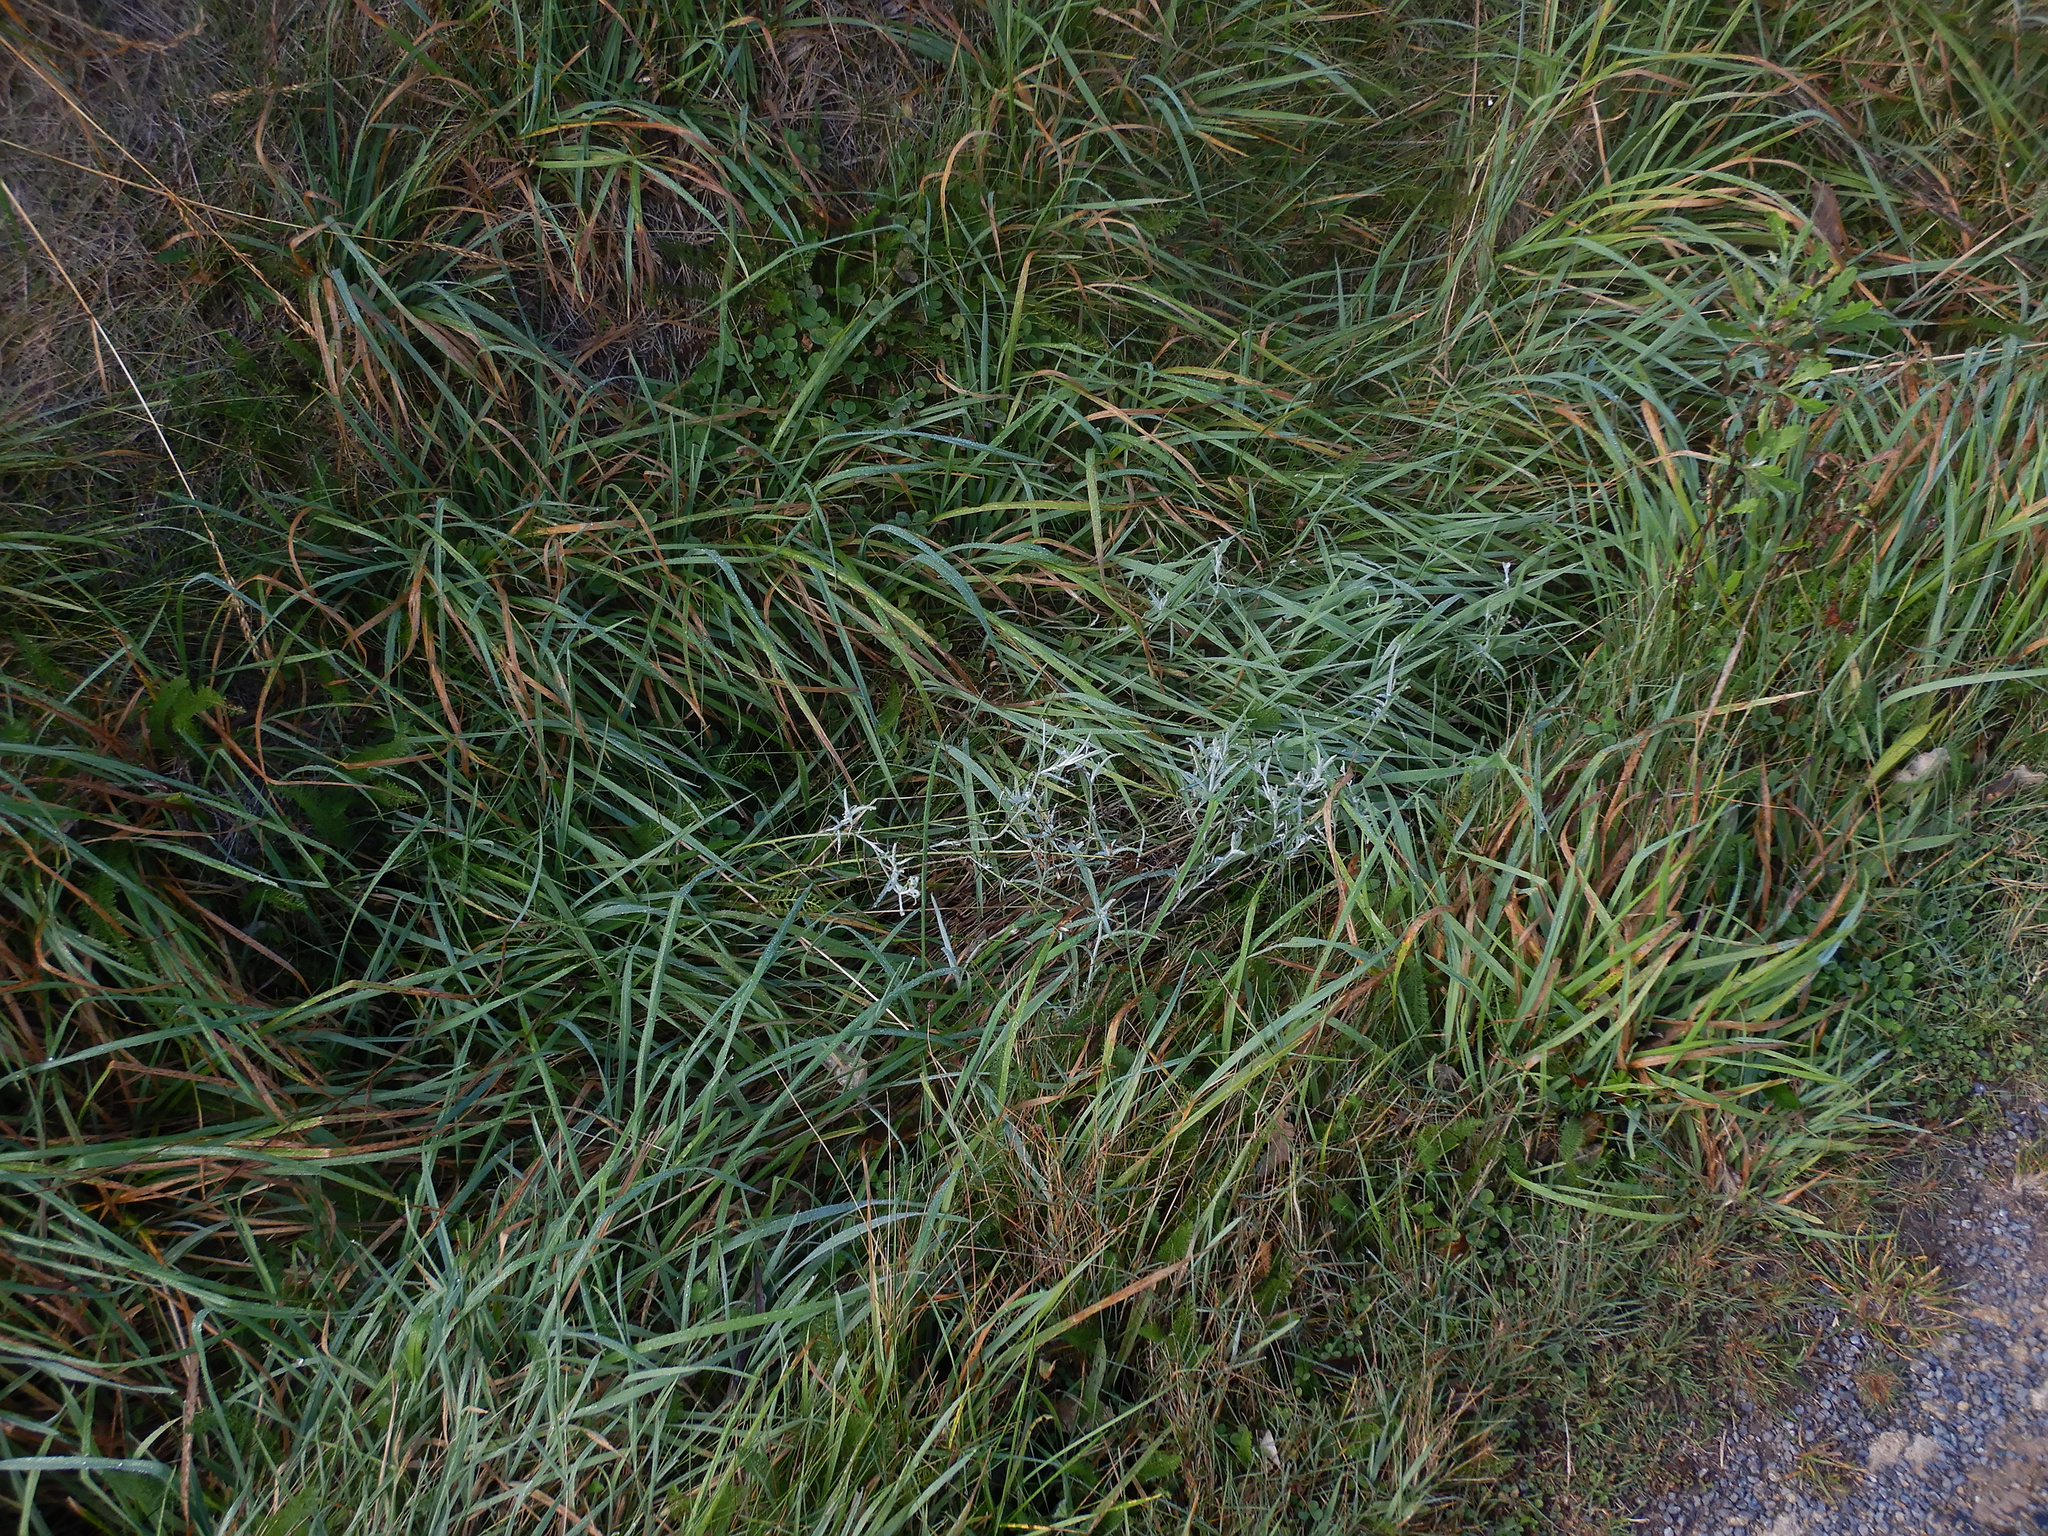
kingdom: Plantae
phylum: Tracheophyta
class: Magnoliopsida
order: Asterales
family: Asteraceae
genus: Senecio
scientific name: Senecio quadridentatus
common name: Cotton fireweed
